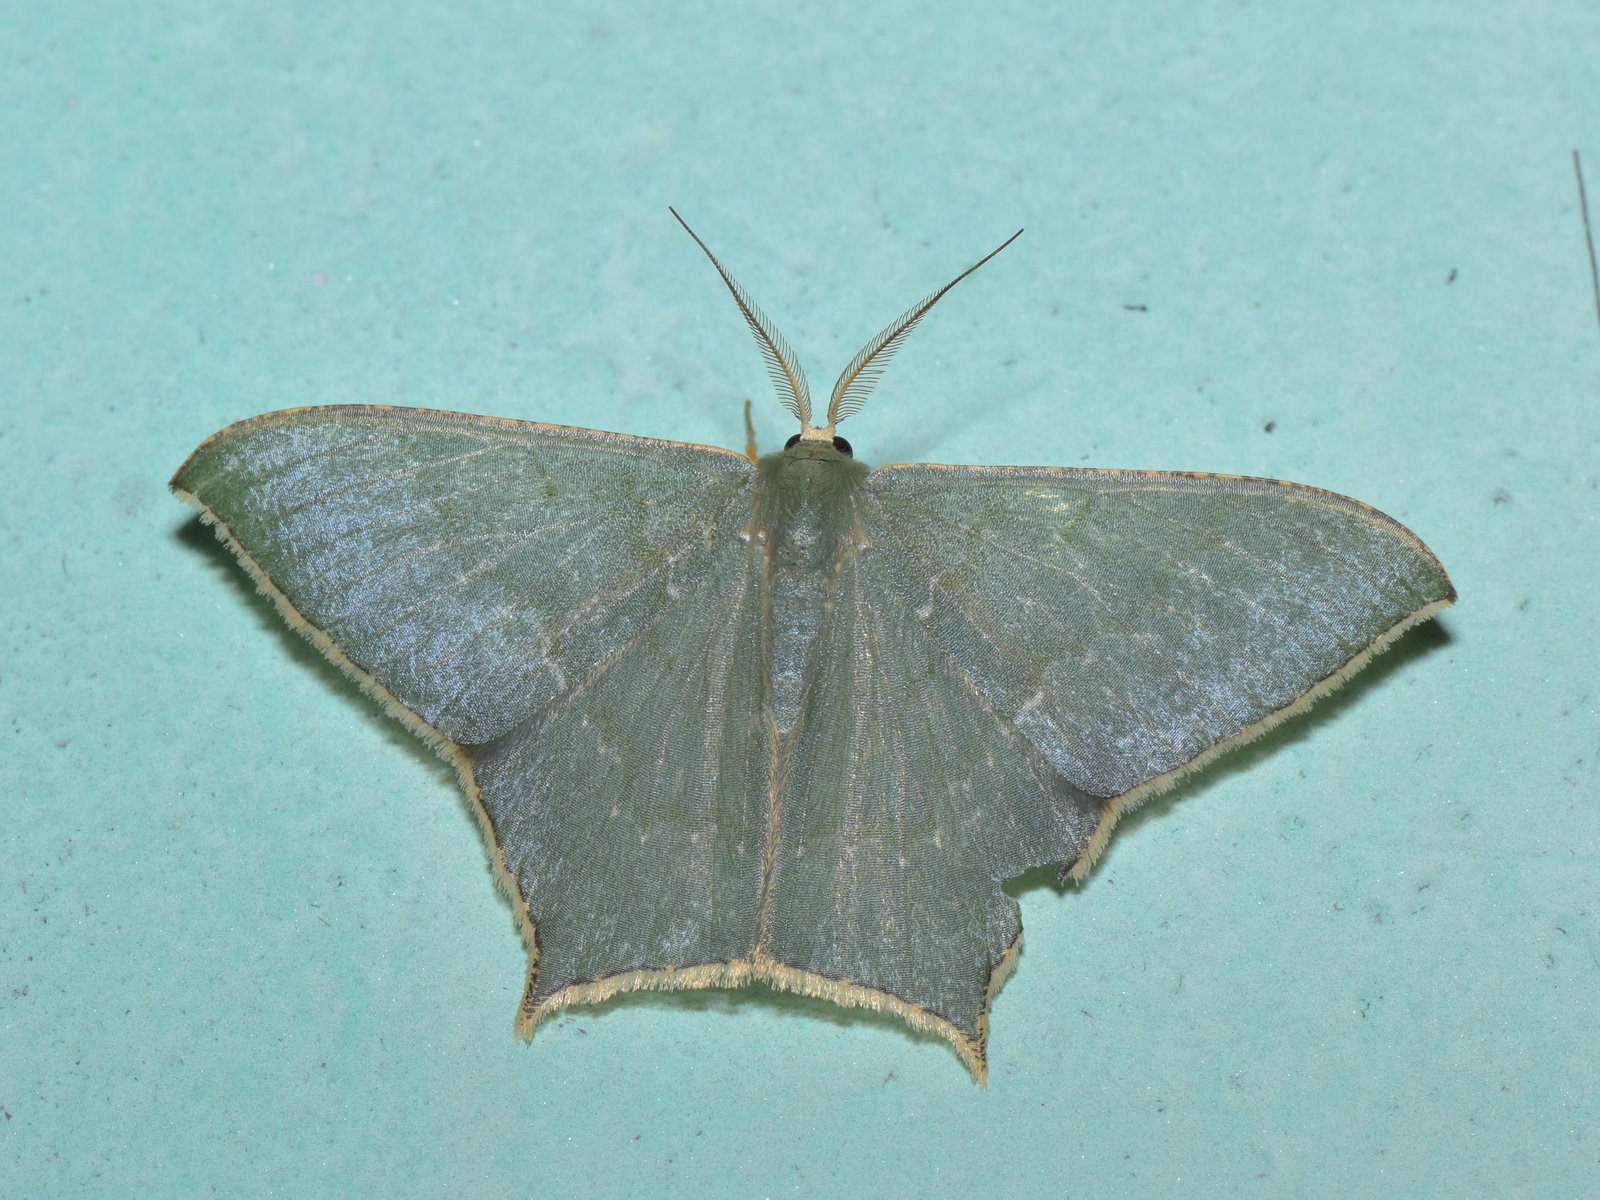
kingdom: Animalia
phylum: Arthropoda
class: Insecta
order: Lepidoptera
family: Geometridae
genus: Maxates
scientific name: Maxates veninotata
